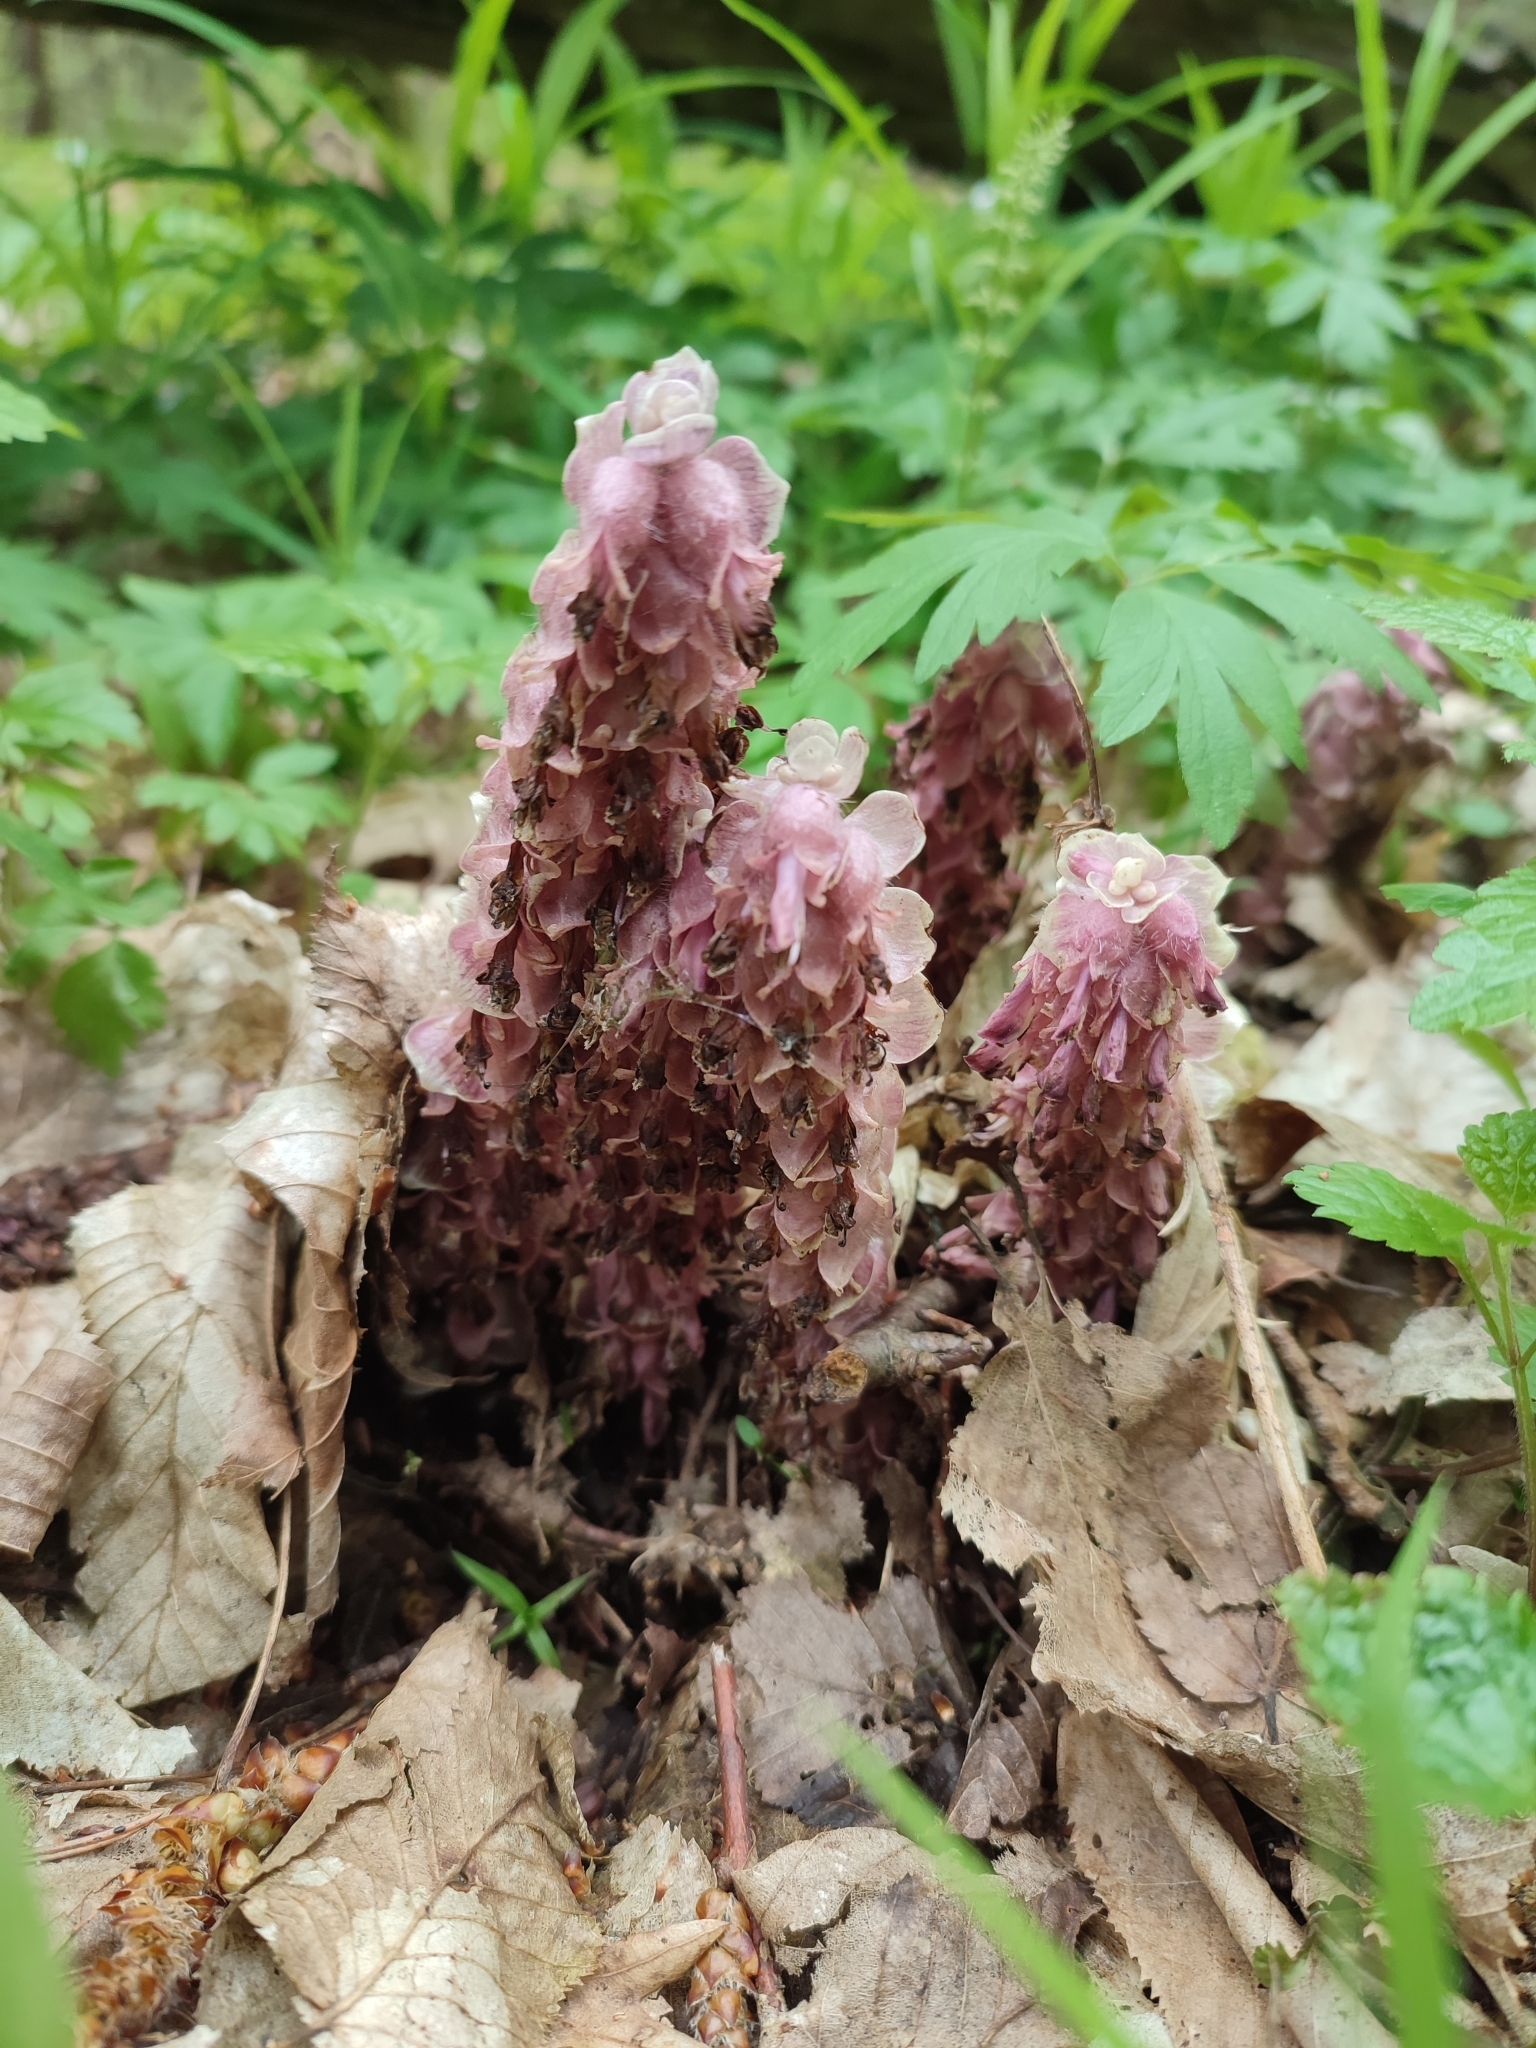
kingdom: Plantae
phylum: Tracheophyta
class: Magnoliopsida
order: Lamiales
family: Orobanchaceae
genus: Lathraea
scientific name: Lathraea squamaria
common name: Toothwort
